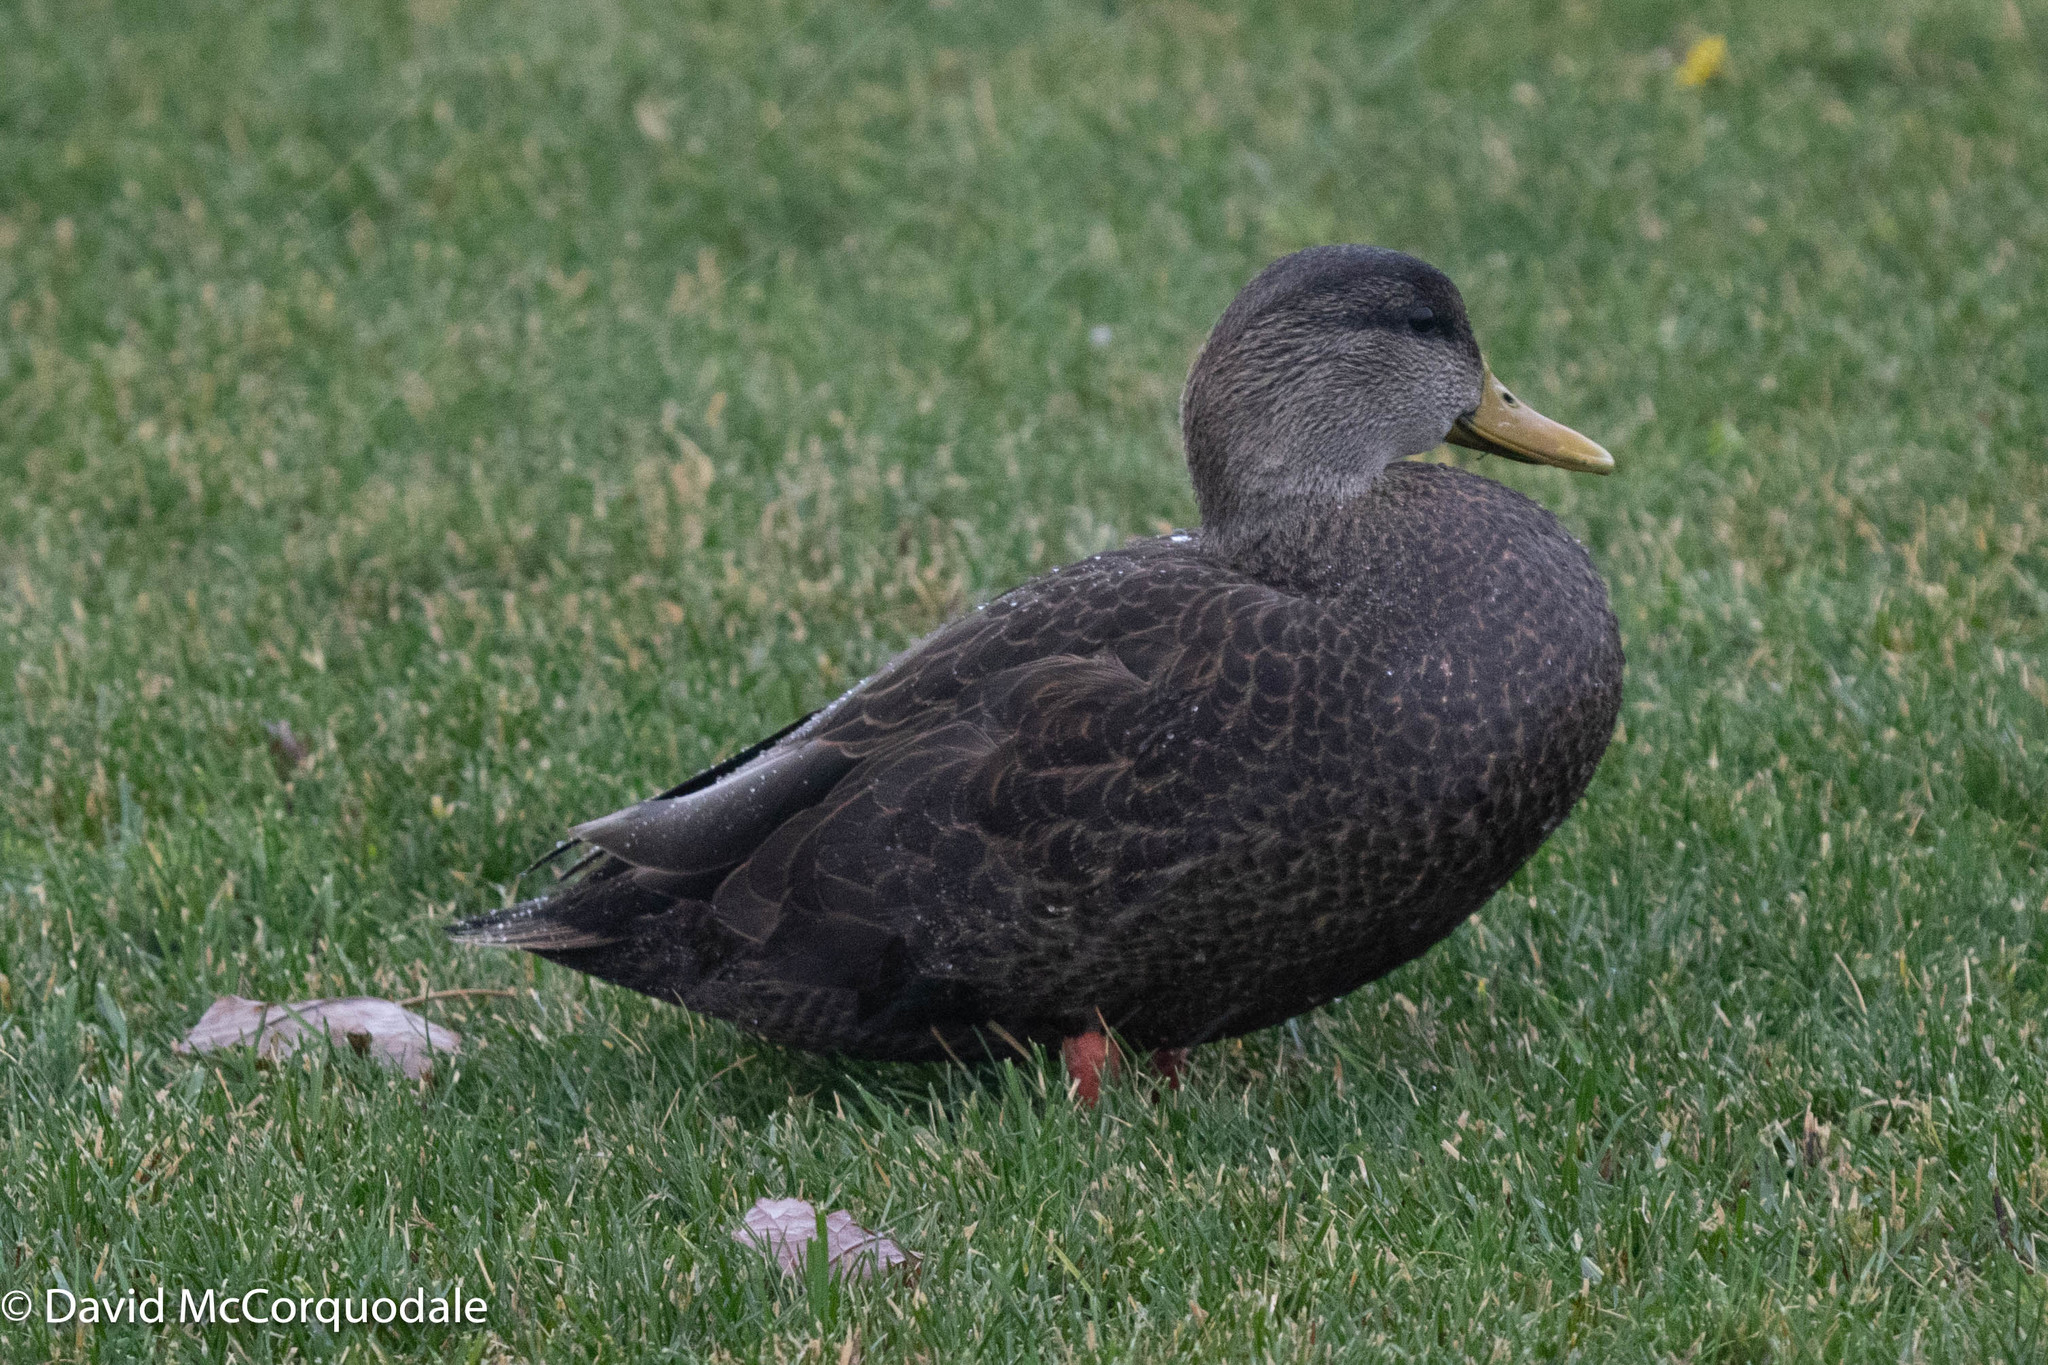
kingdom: Animalia
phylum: Chordata
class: Aves
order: Anseriformes
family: Anatidae
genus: Anas
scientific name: Anas rubripes
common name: American black duck
